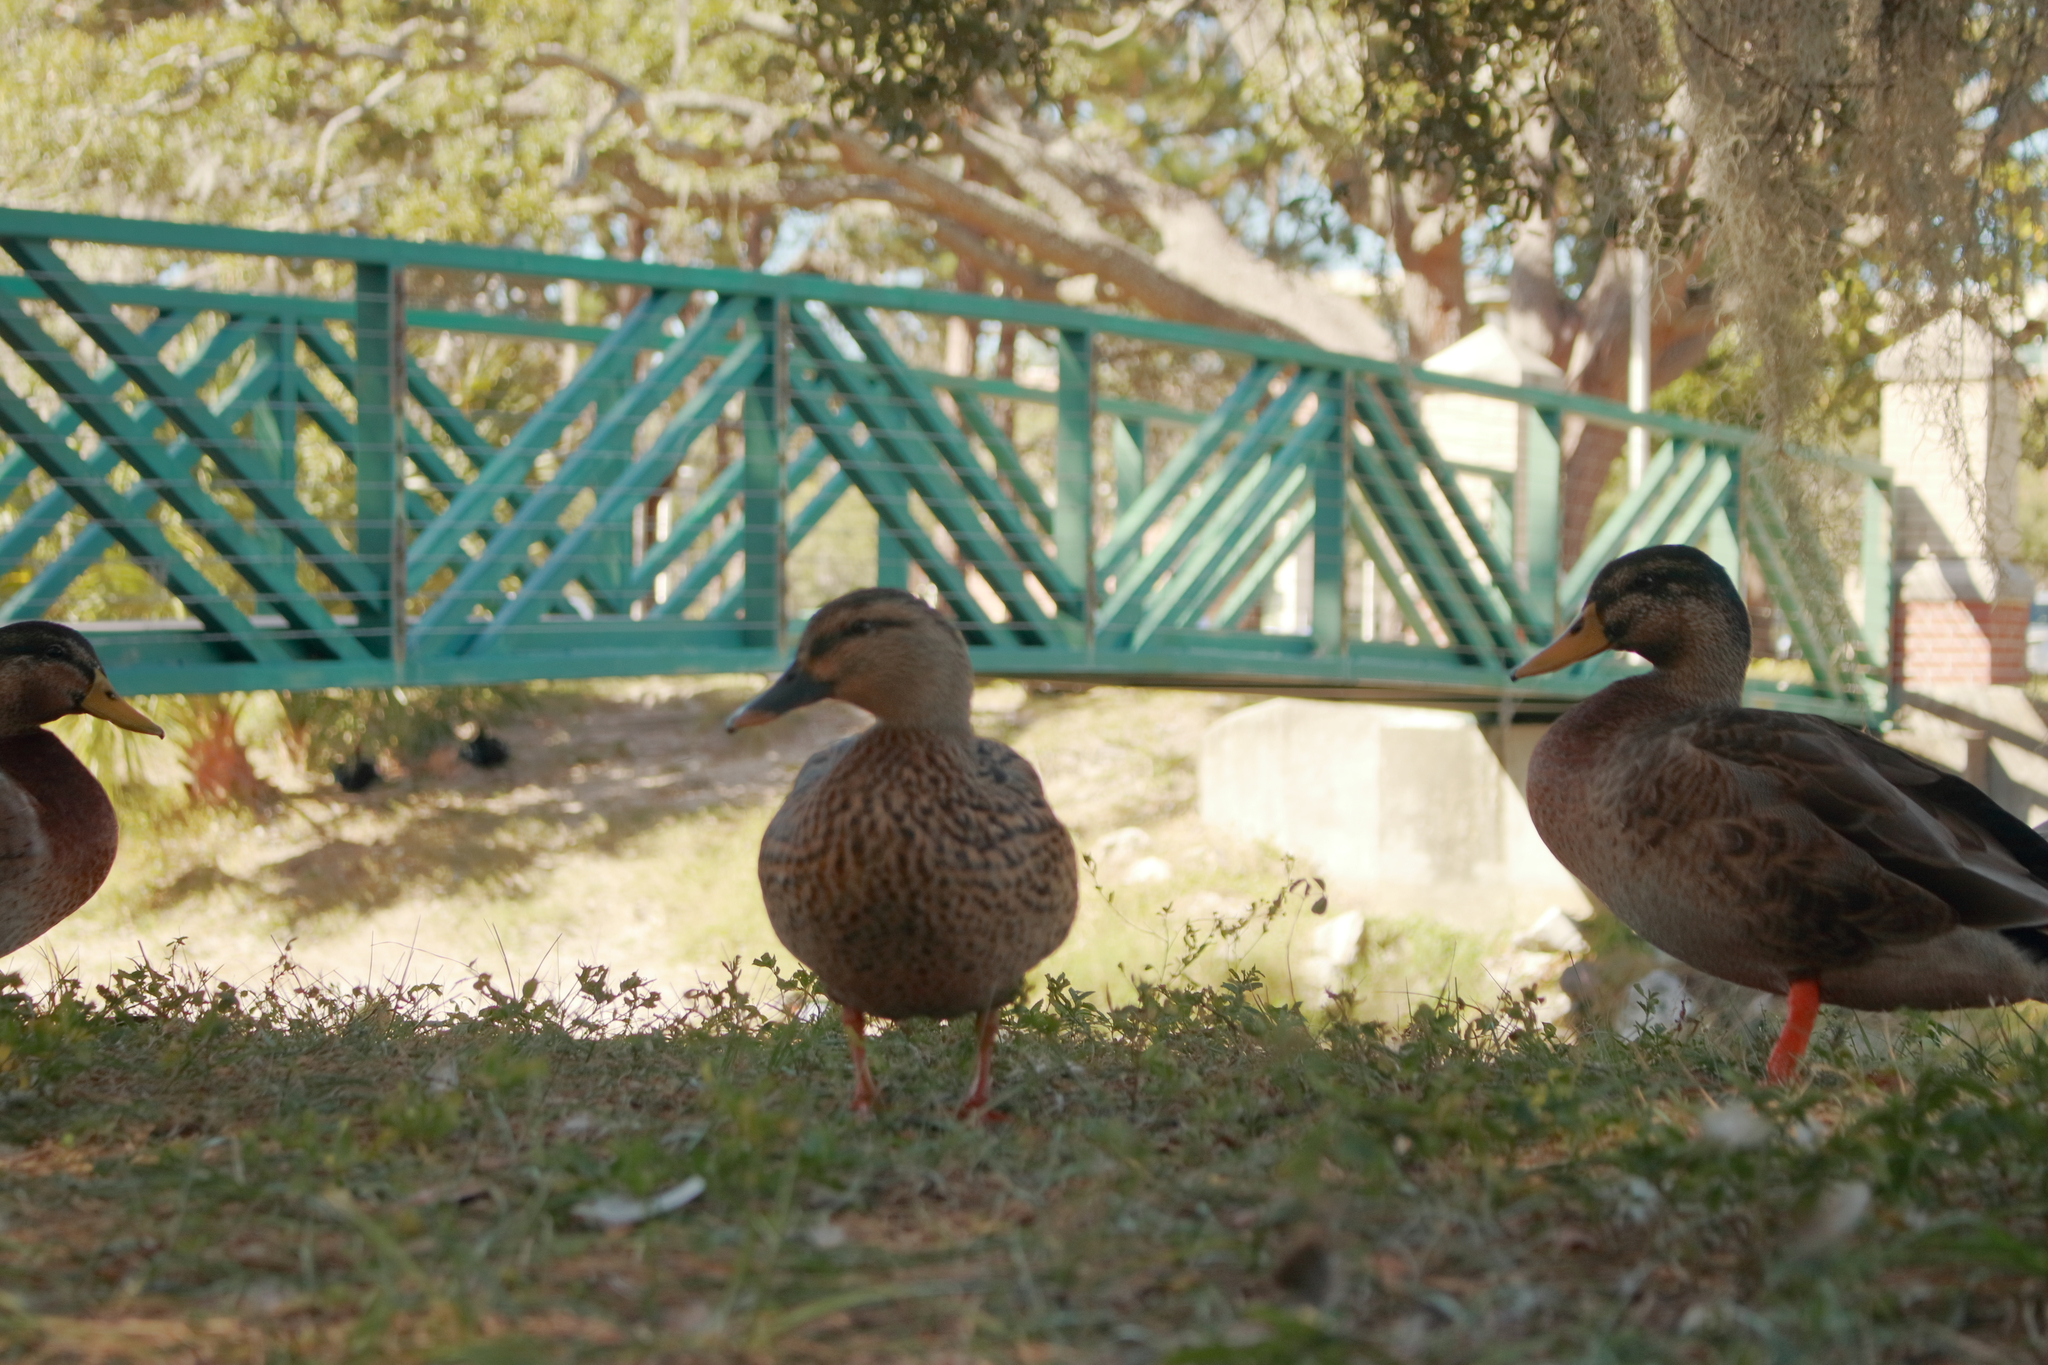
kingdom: Animalia
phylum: Chordata
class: Aves
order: Anseriformes
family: Anatidae
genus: Anas
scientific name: Anas platyrhynchos
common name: Mallard
